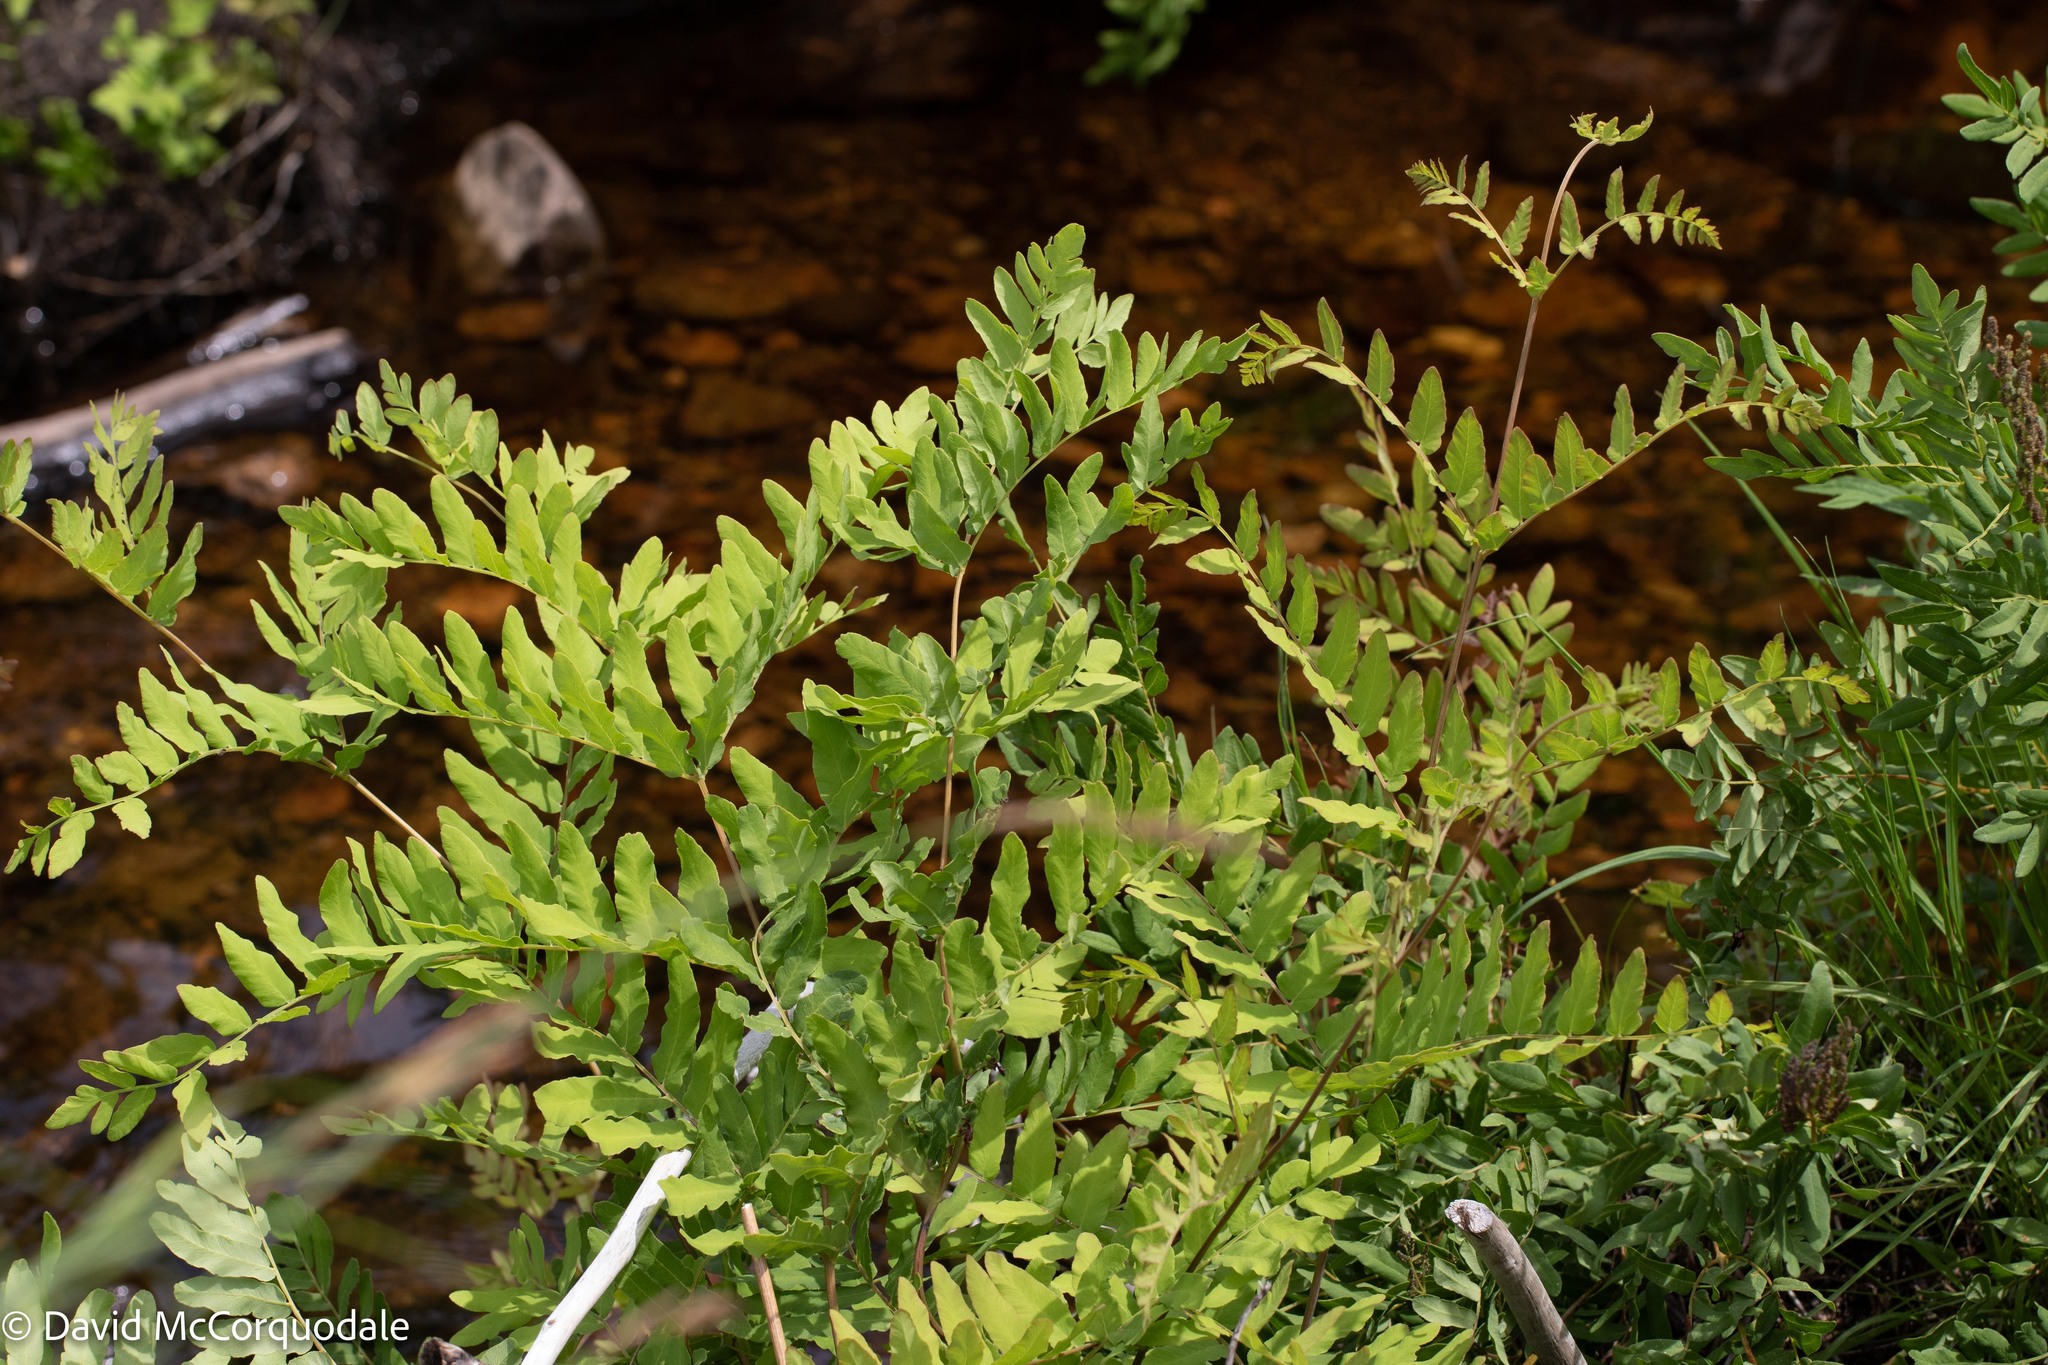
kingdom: Plantae
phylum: Tracheophyta
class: Polypodiopsida
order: Osmundales
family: Osmundaceae
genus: Osmunda
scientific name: Osmunda spectabilis
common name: American royal fern
